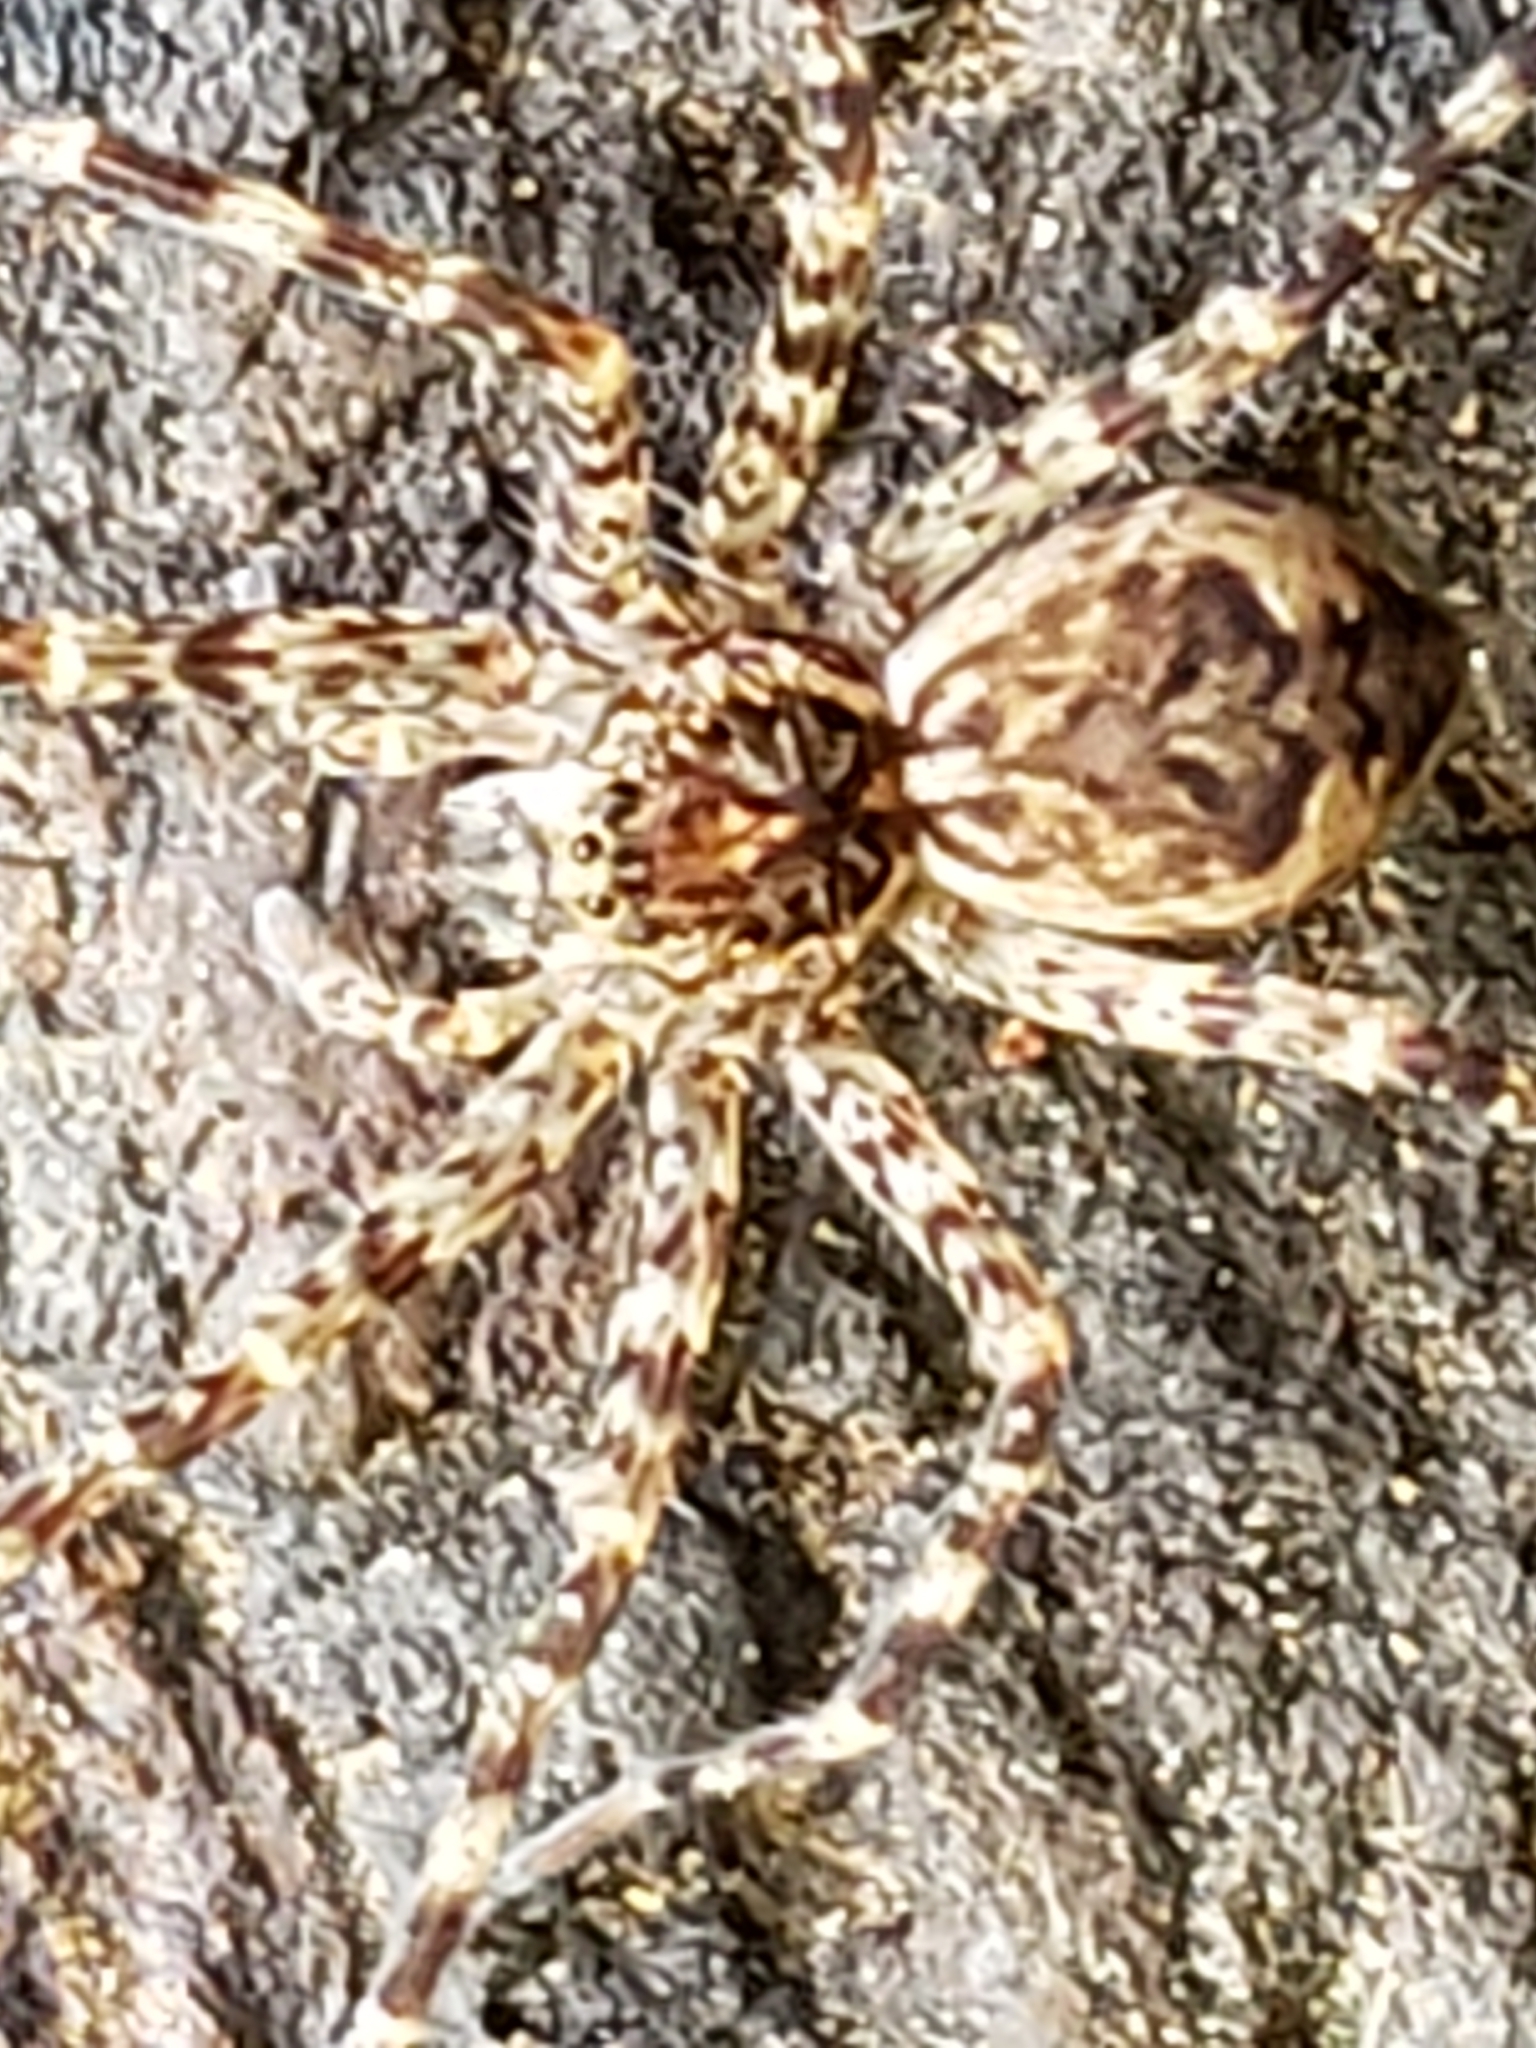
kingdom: Animalia
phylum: Arthropoda
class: Arachnida
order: Araneae
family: Pisauridae
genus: Dolomedes
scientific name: Dolomedes tenebrosus
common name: Dark fishing spider
